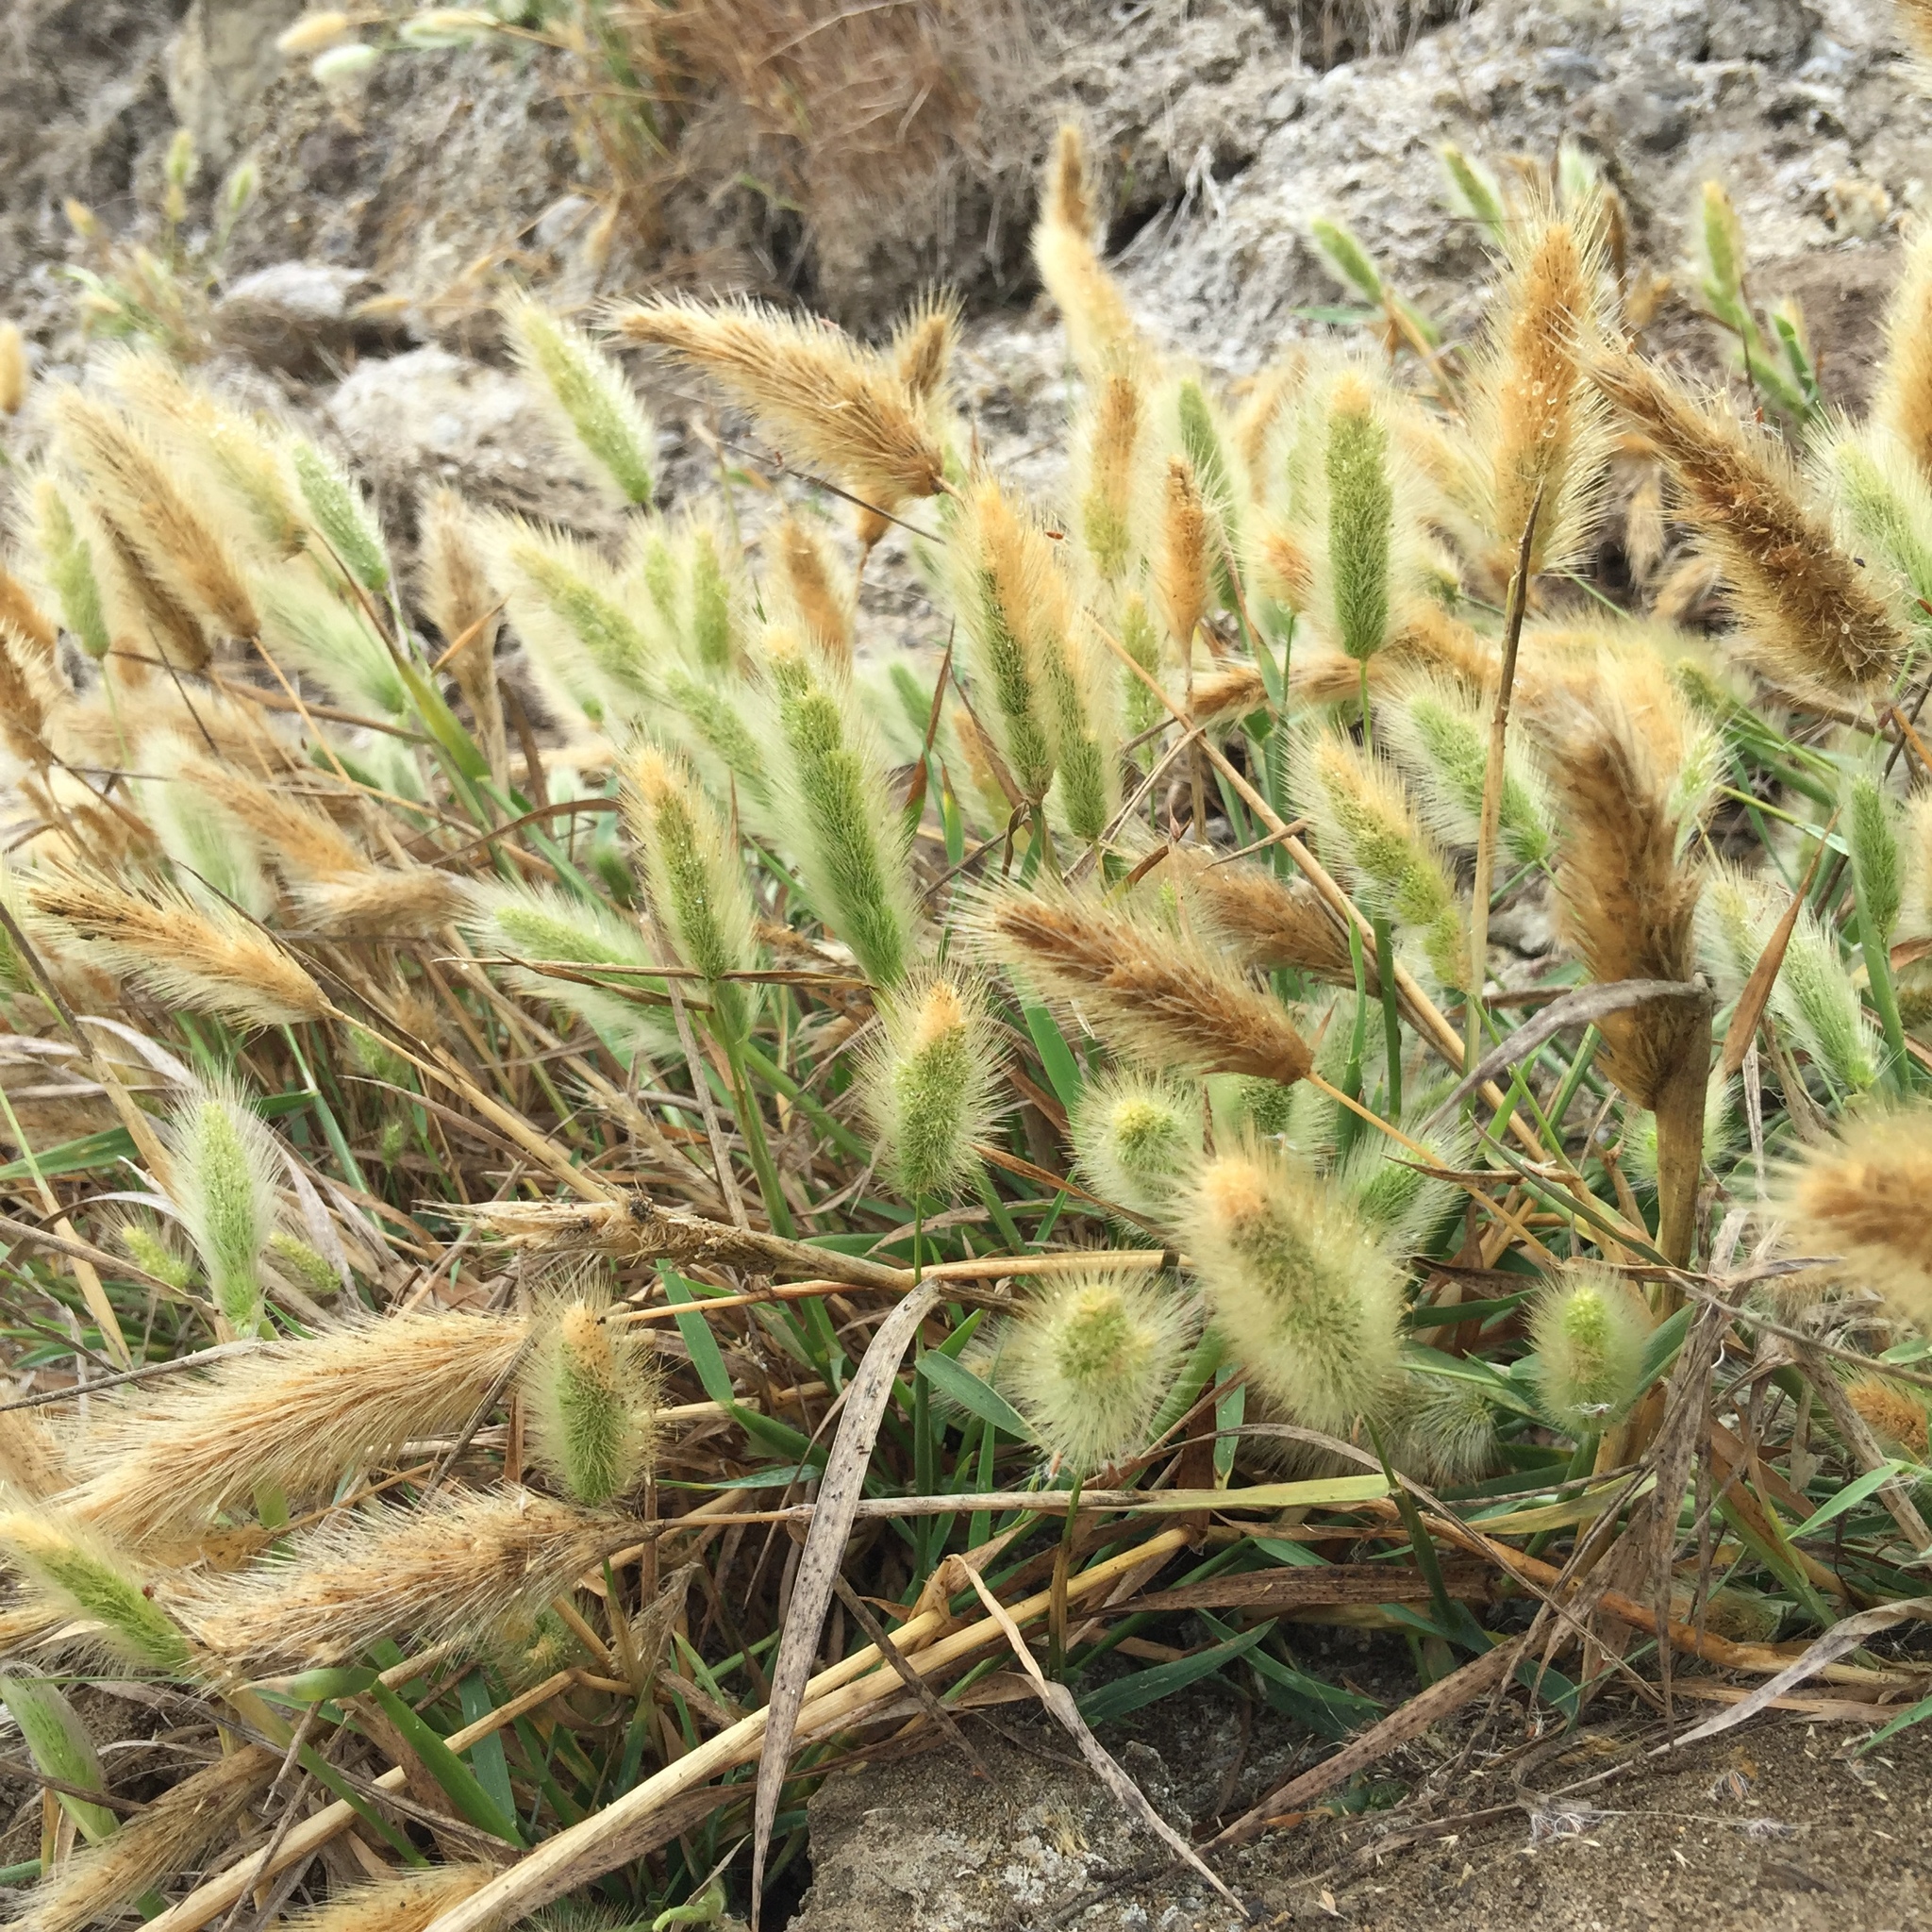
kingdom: Plantae
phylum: Tracheophyta
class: Liliopsida
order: Poales
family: Poaceae
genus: Polypogon
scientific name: Polypogon monspeliensis
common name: Annual rabbitsfoot grass
